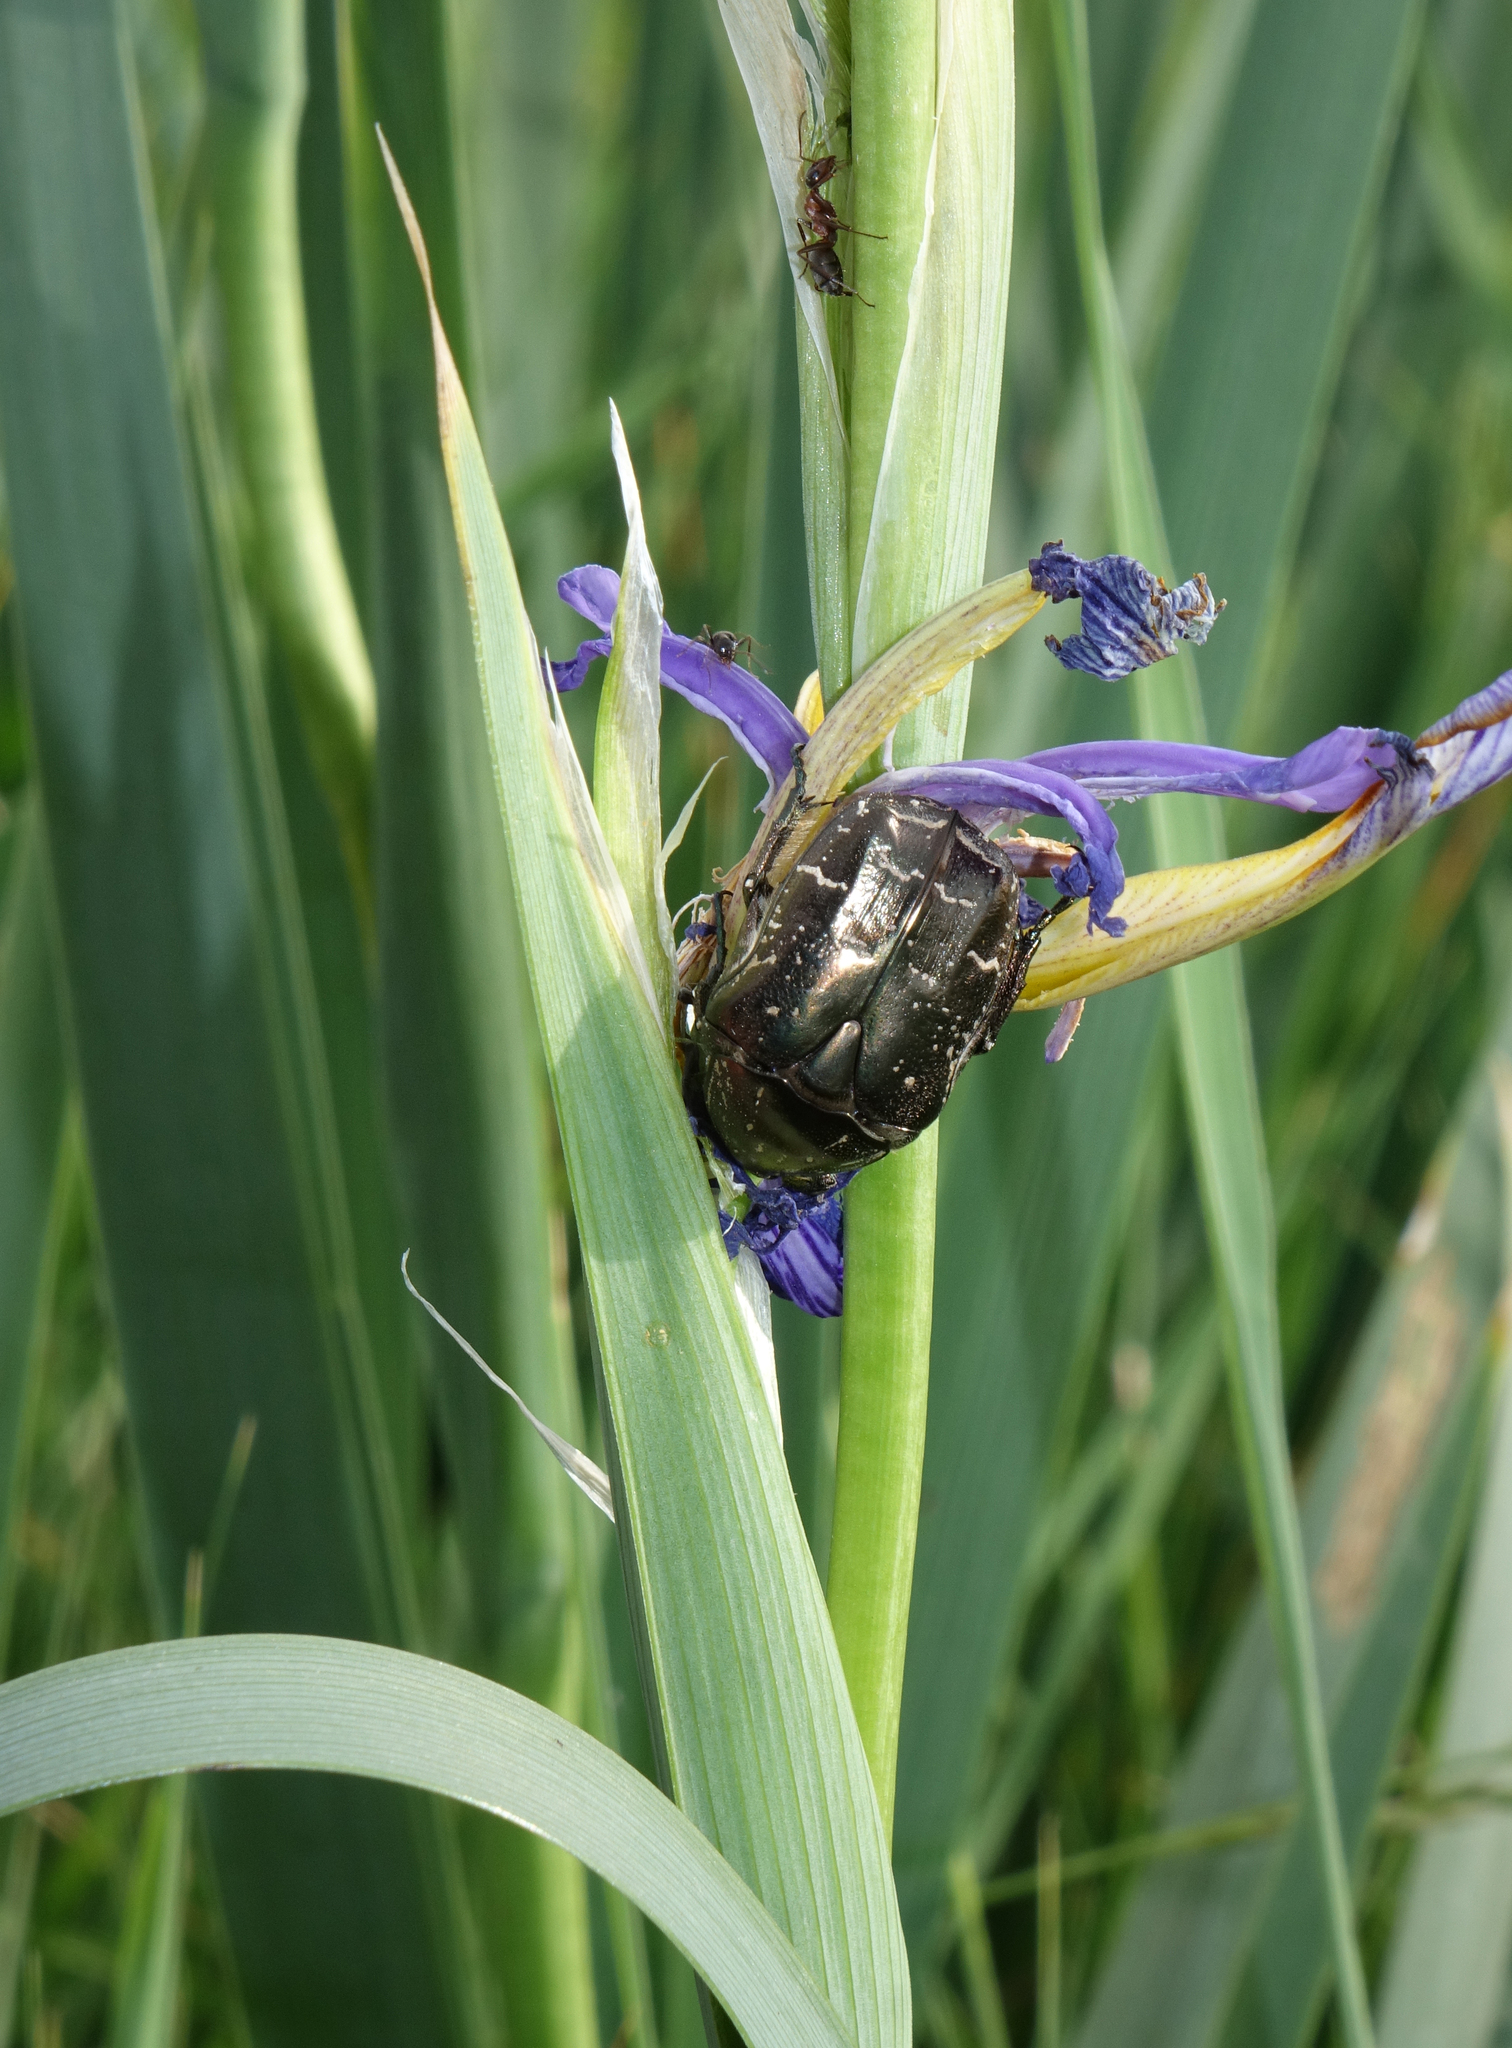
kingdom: Plantae
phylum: Tracheophyta
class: Liliopsida
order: Asparagales
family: Iridaceae
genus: Iris
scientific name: Iris pseudonotha
